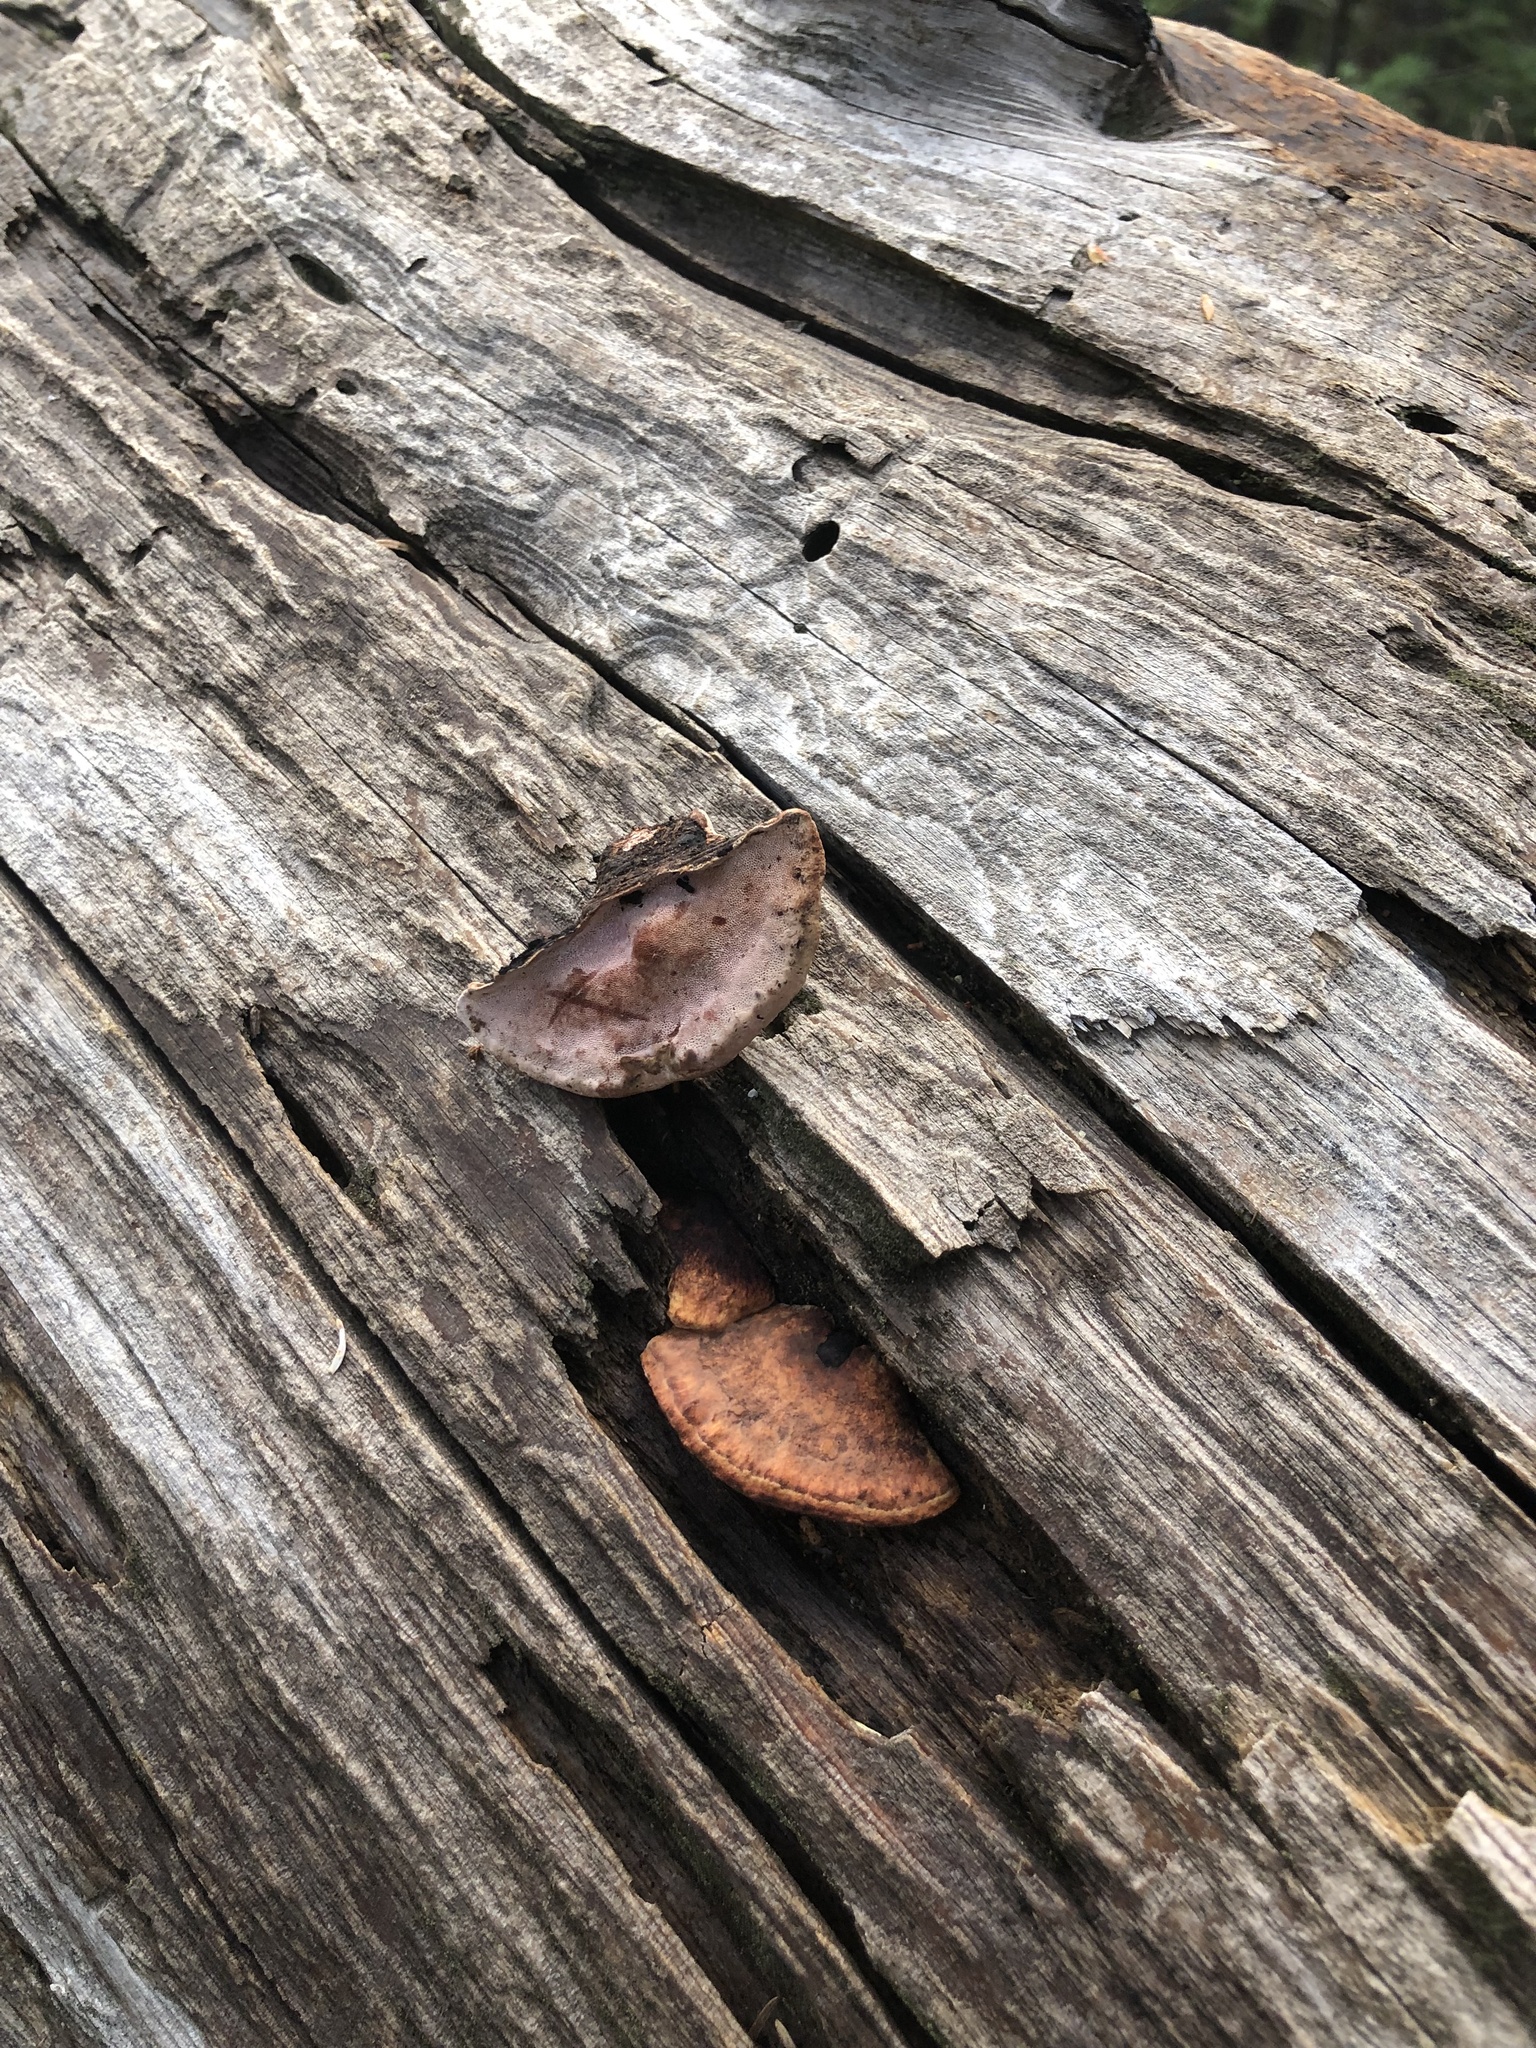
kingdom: Fungi
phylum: Basidiomycota
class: Agaricomycetes
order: Polyporales
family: Fomitopsidaceae
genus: Rhodofomes
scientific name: Rhodofomes cajanderi
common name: Rosy conk
